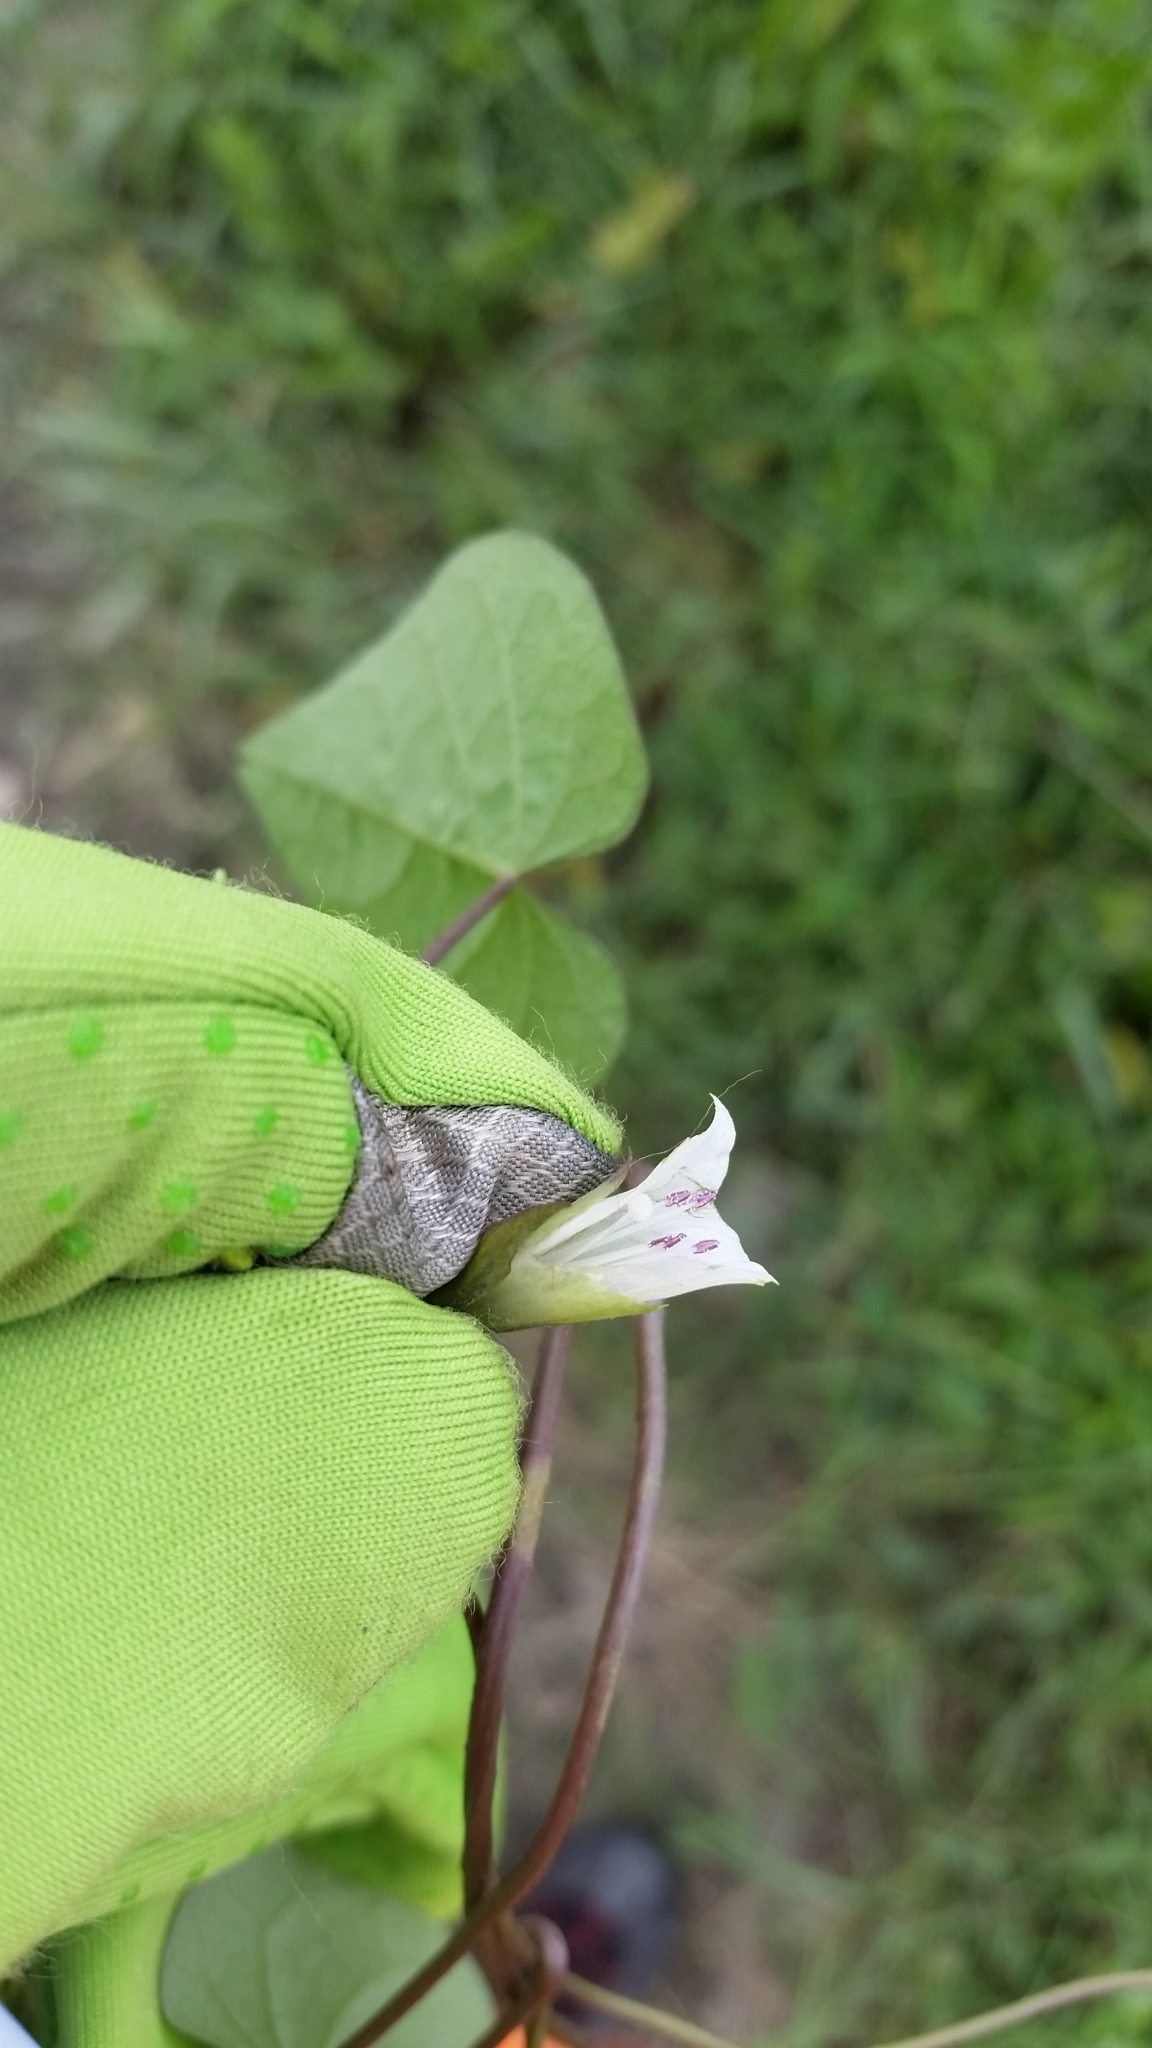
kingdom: Plantae
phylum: Tracheophyta
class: Magnoliopsida
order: Solanales
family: Convolvulaceae
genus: Ipomoea
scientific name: Ipomoea lacunosa
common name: White morning-glory
